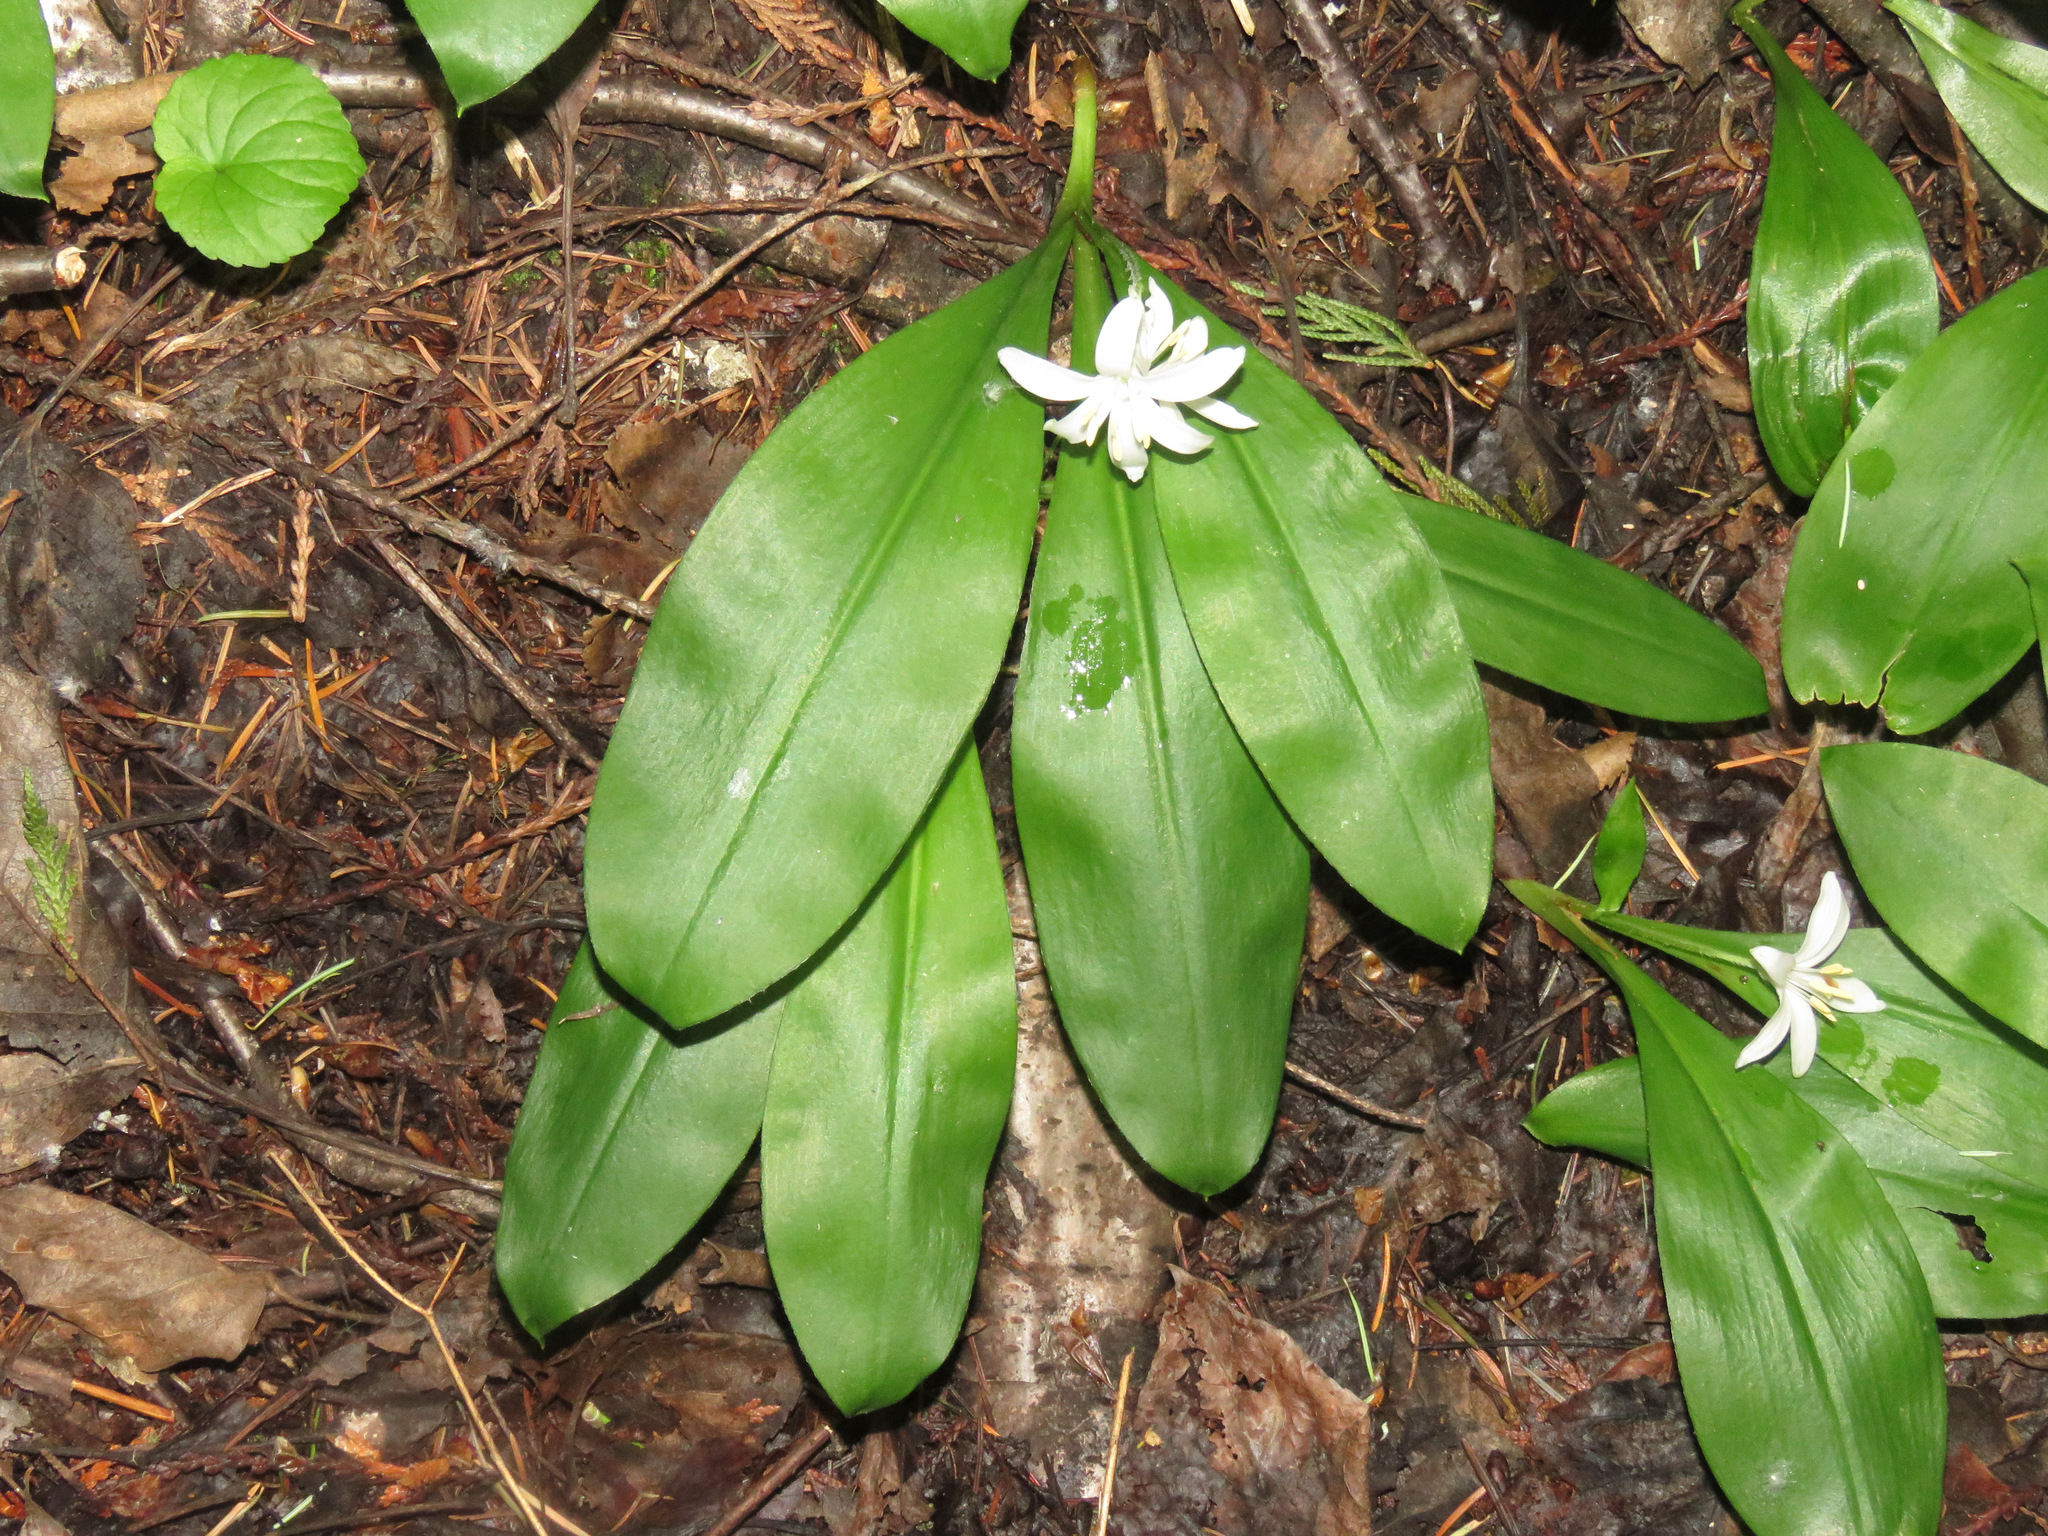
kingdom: Plantae
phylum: Tracheophyta
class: Liliopsida
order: Liliales
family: Liliaceae
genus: Clintonia
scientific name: Clintonia uniflora
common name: Queen's cup
